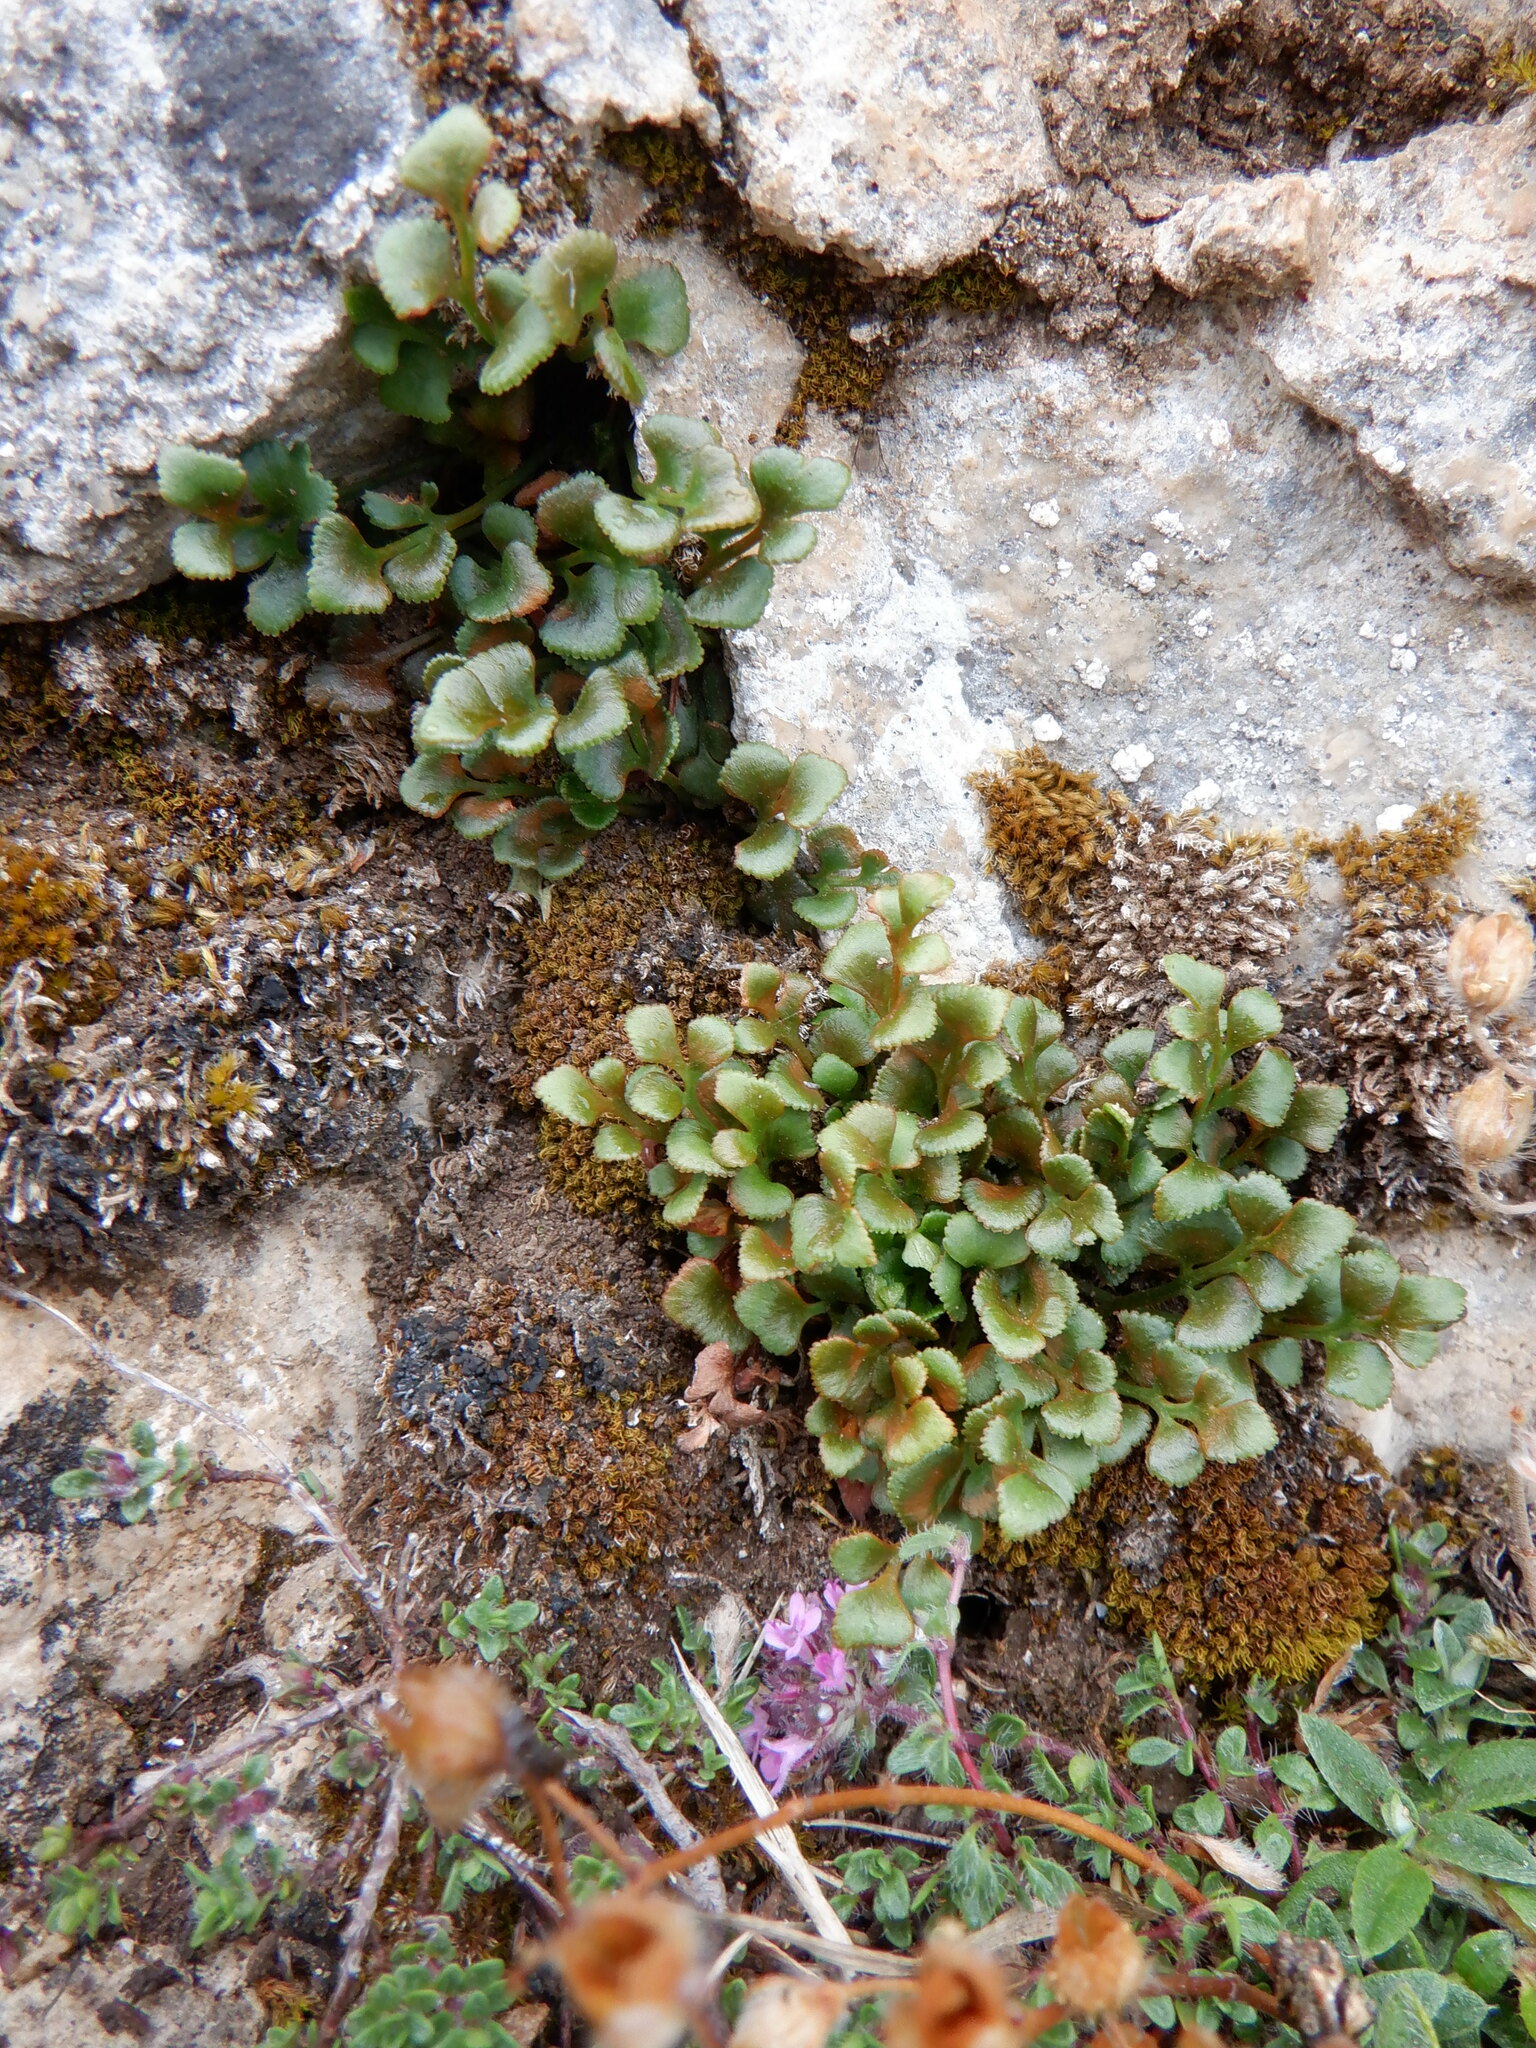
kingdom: Plantae
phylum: Tracheophyta
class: Polypodiopsida
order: Polypodiales
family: Aspleniaceae
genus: Asplenium
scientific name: Asplenium ruta-muraria
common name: Wall-rue
